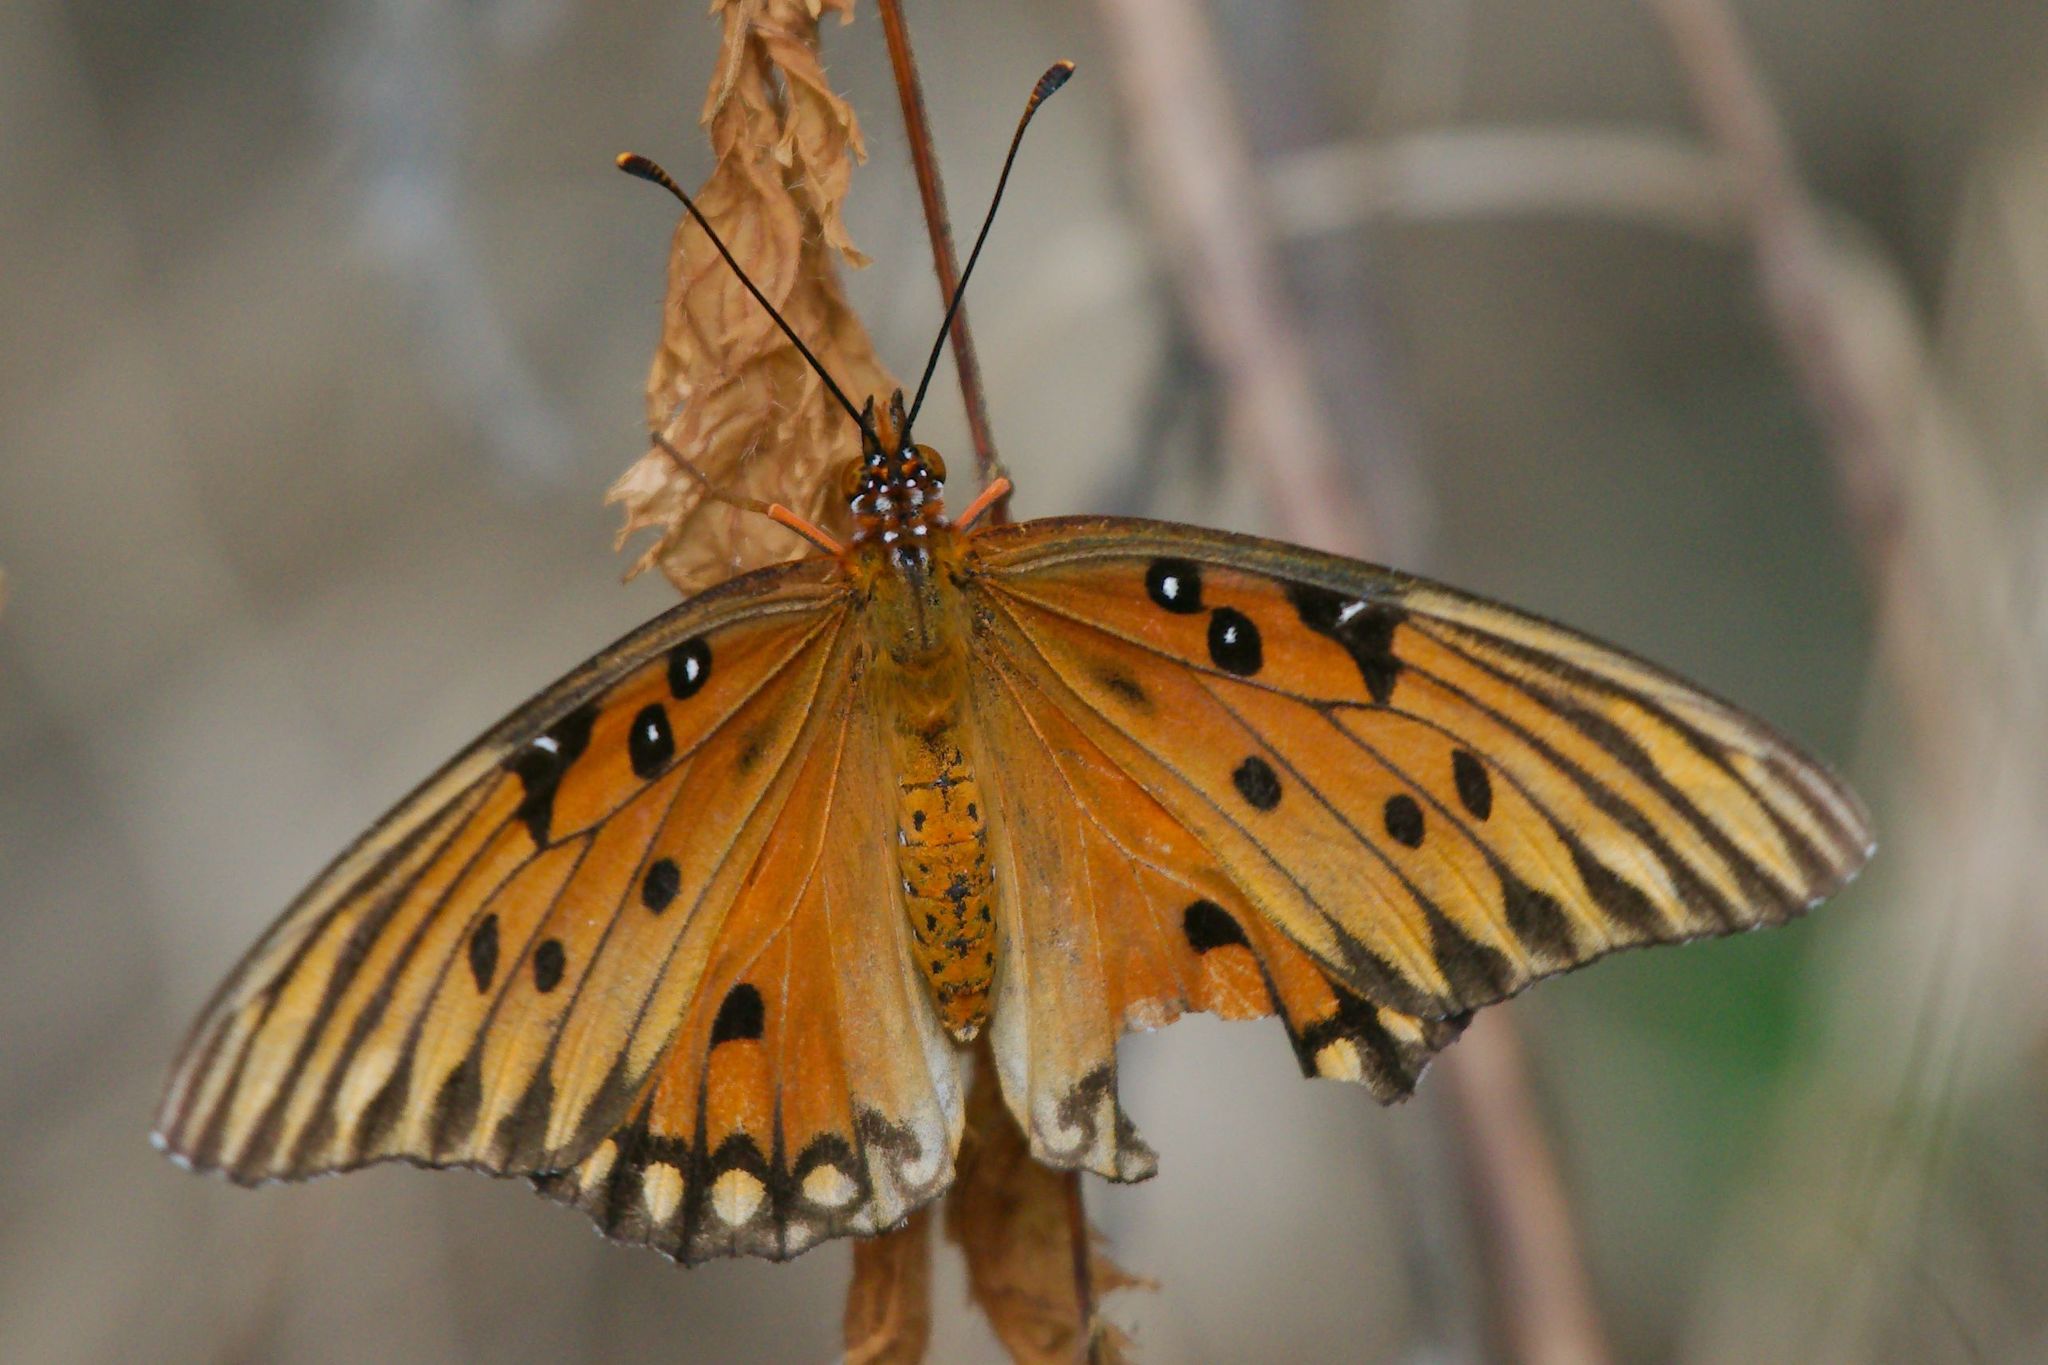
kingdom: Animalia
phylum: Arthropoda
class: Insecta
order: Lepidoptera
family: Nymphalidae
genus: Dione
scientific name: Dione vanillae
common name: Gulf fritillary
